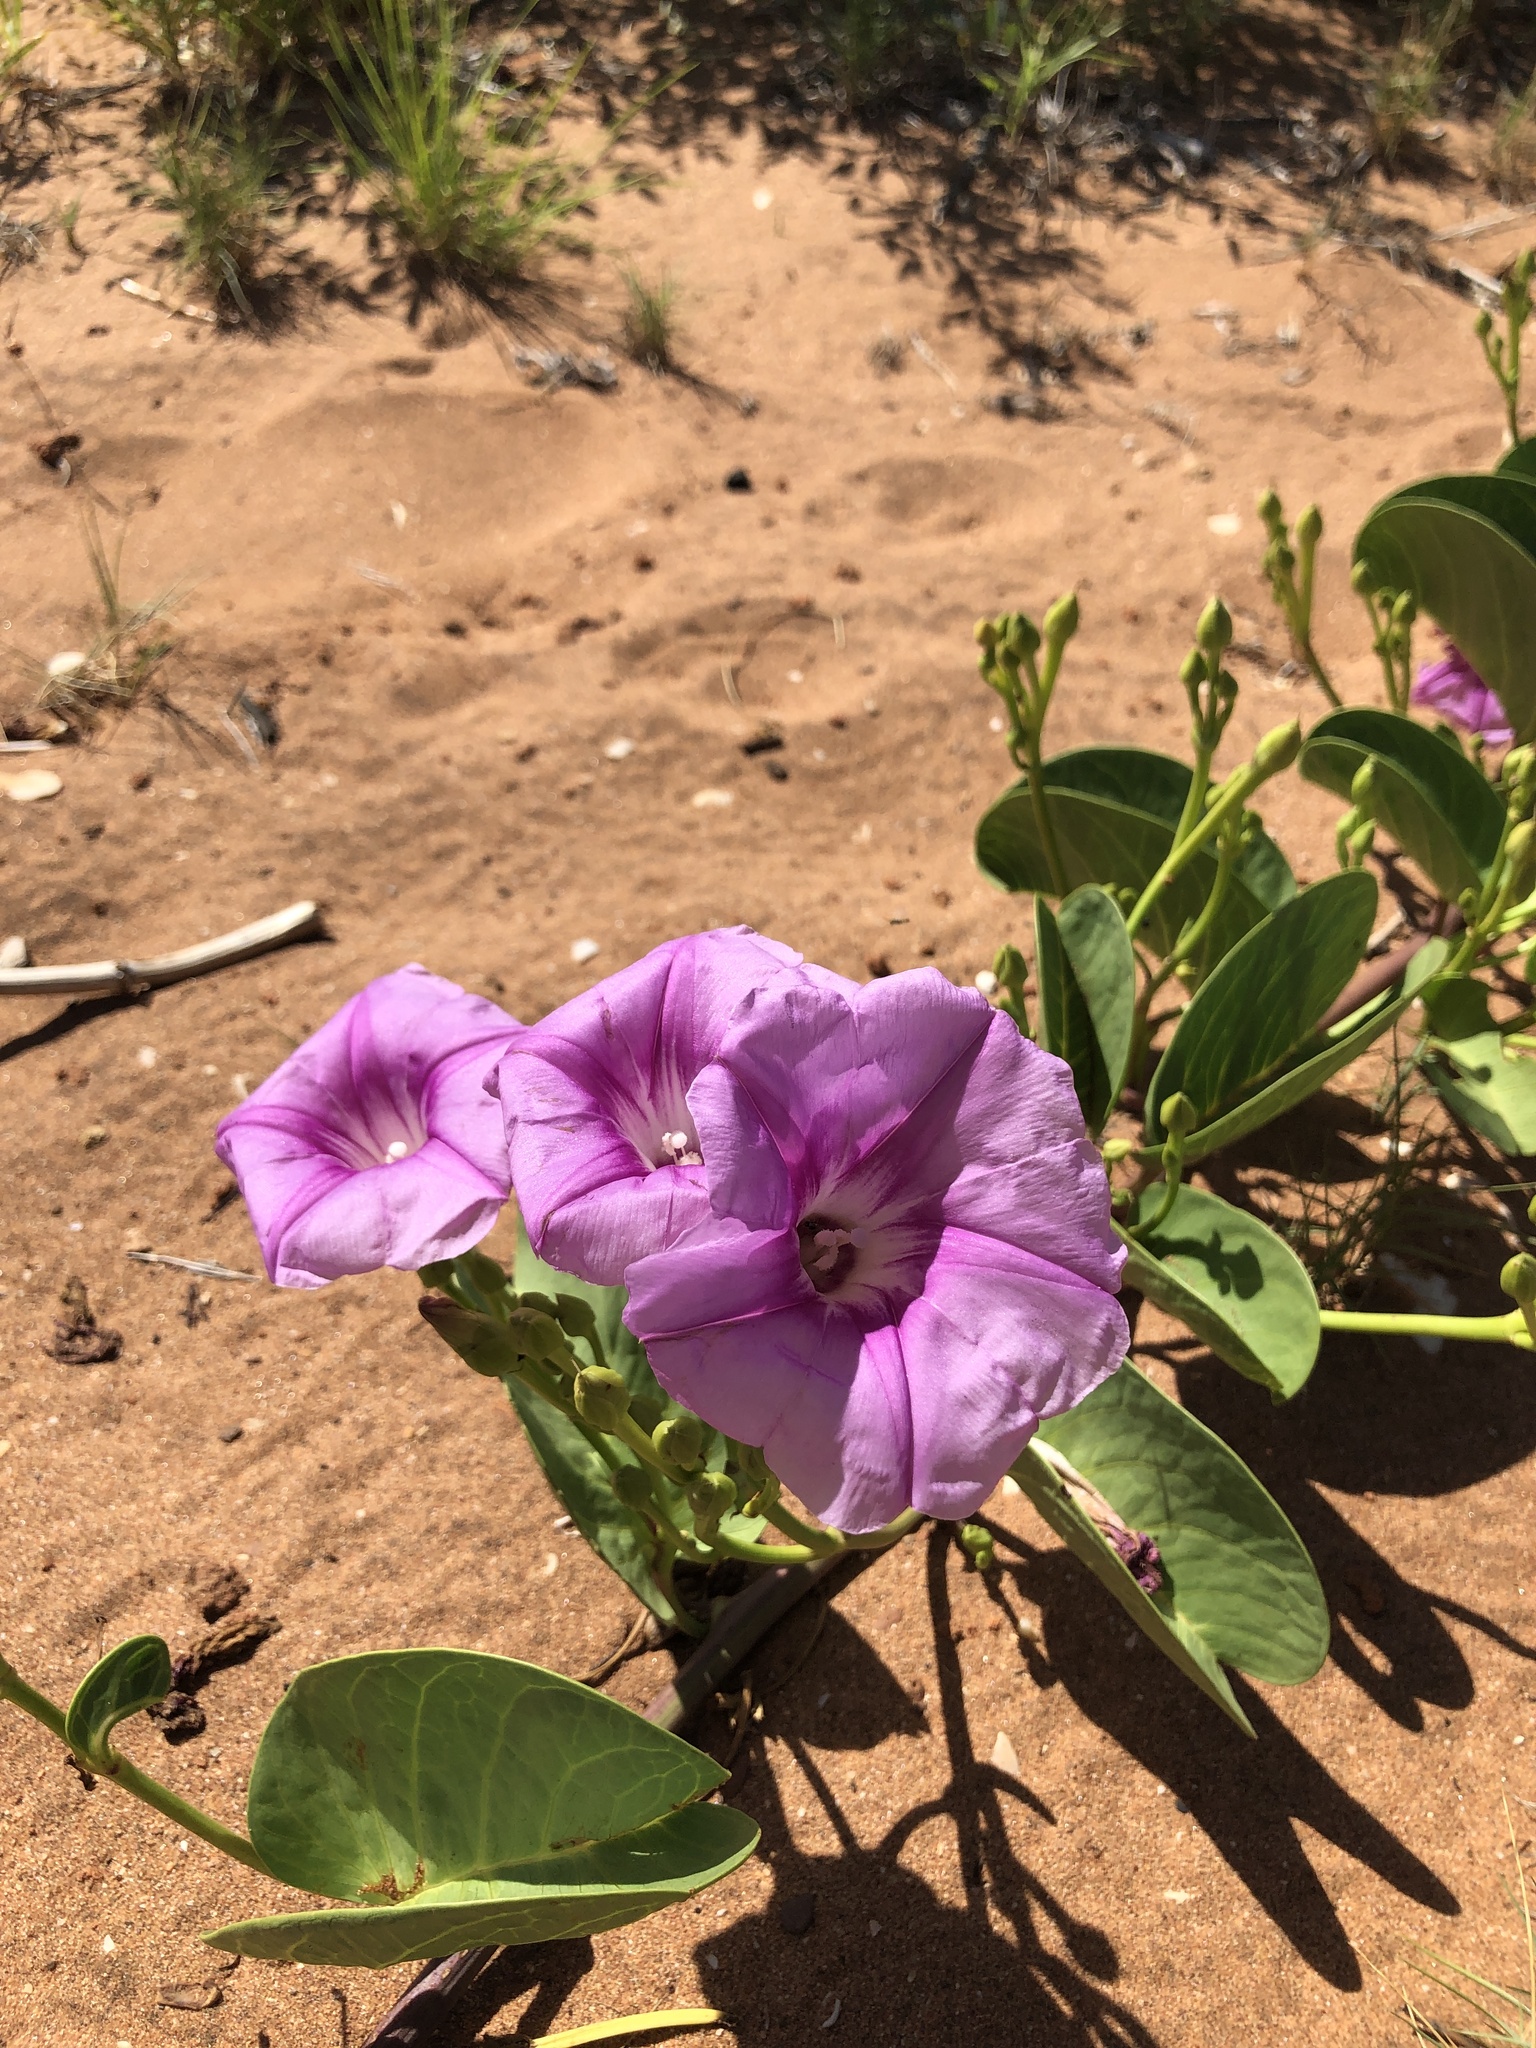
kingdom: Plantae
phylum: Tracheophyta
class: Magnoliopsida
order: Solanales
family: Convolvulaceae
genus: Ipomoea
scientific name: Ipomoea pes-caprae
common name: Beach morning glory
